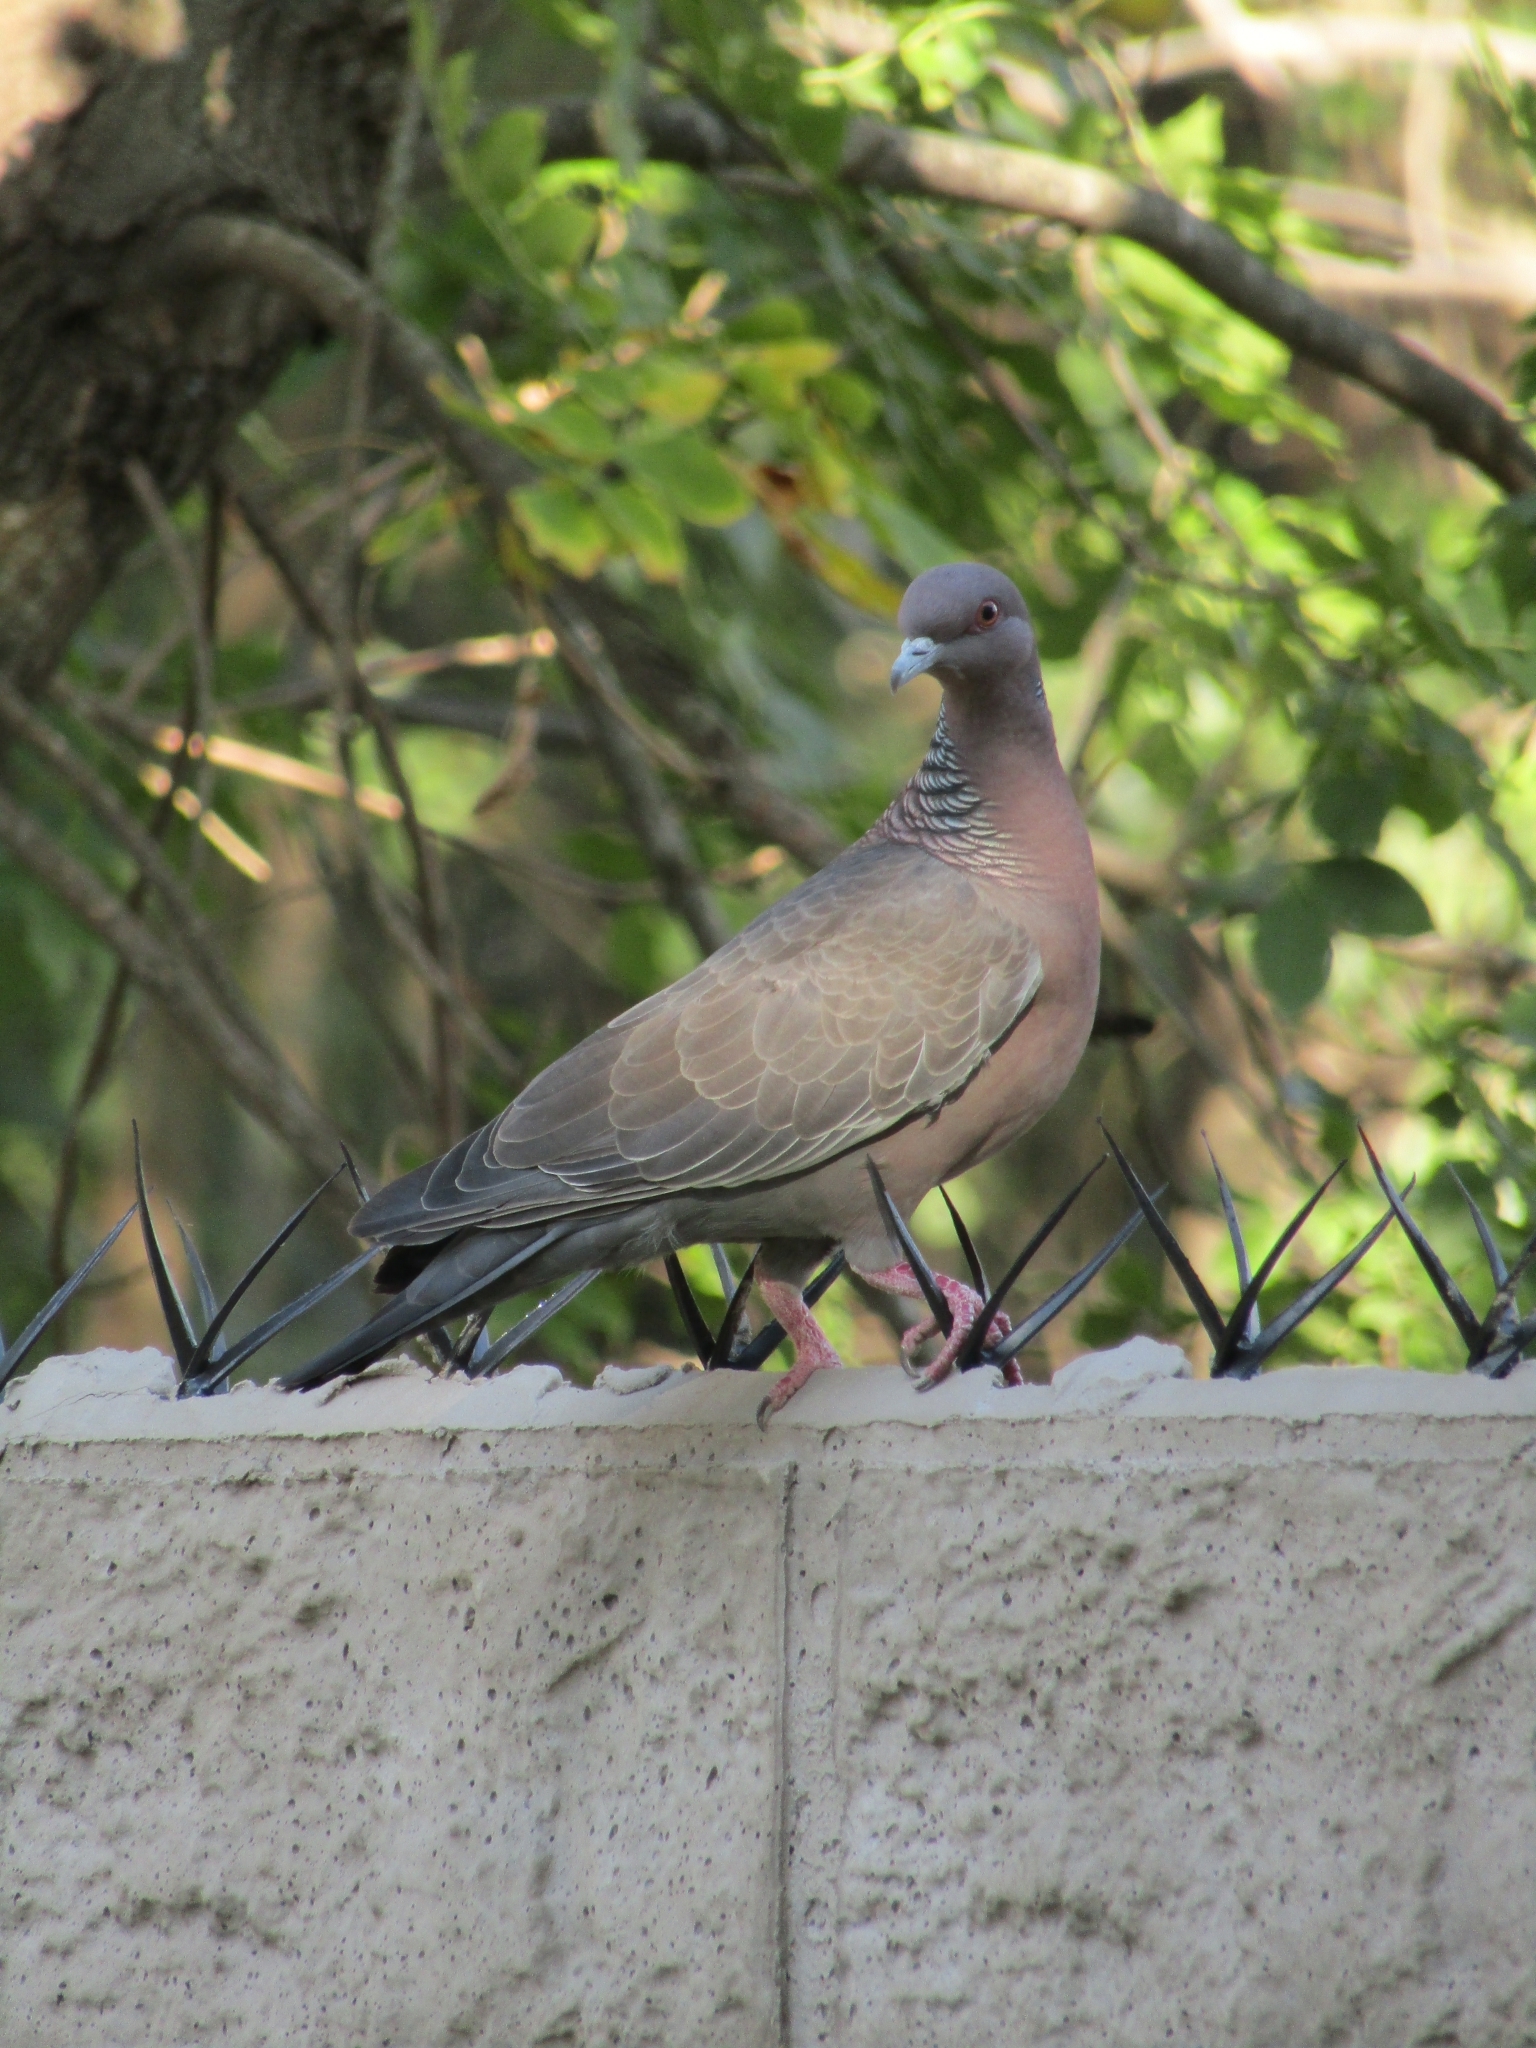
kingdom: Animalia
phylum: Chordata
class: Aves
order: Columbiformes
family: Columbidae
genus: Patagioenas
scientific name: Patagioenas picazuro
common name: Picazuro pigeon
